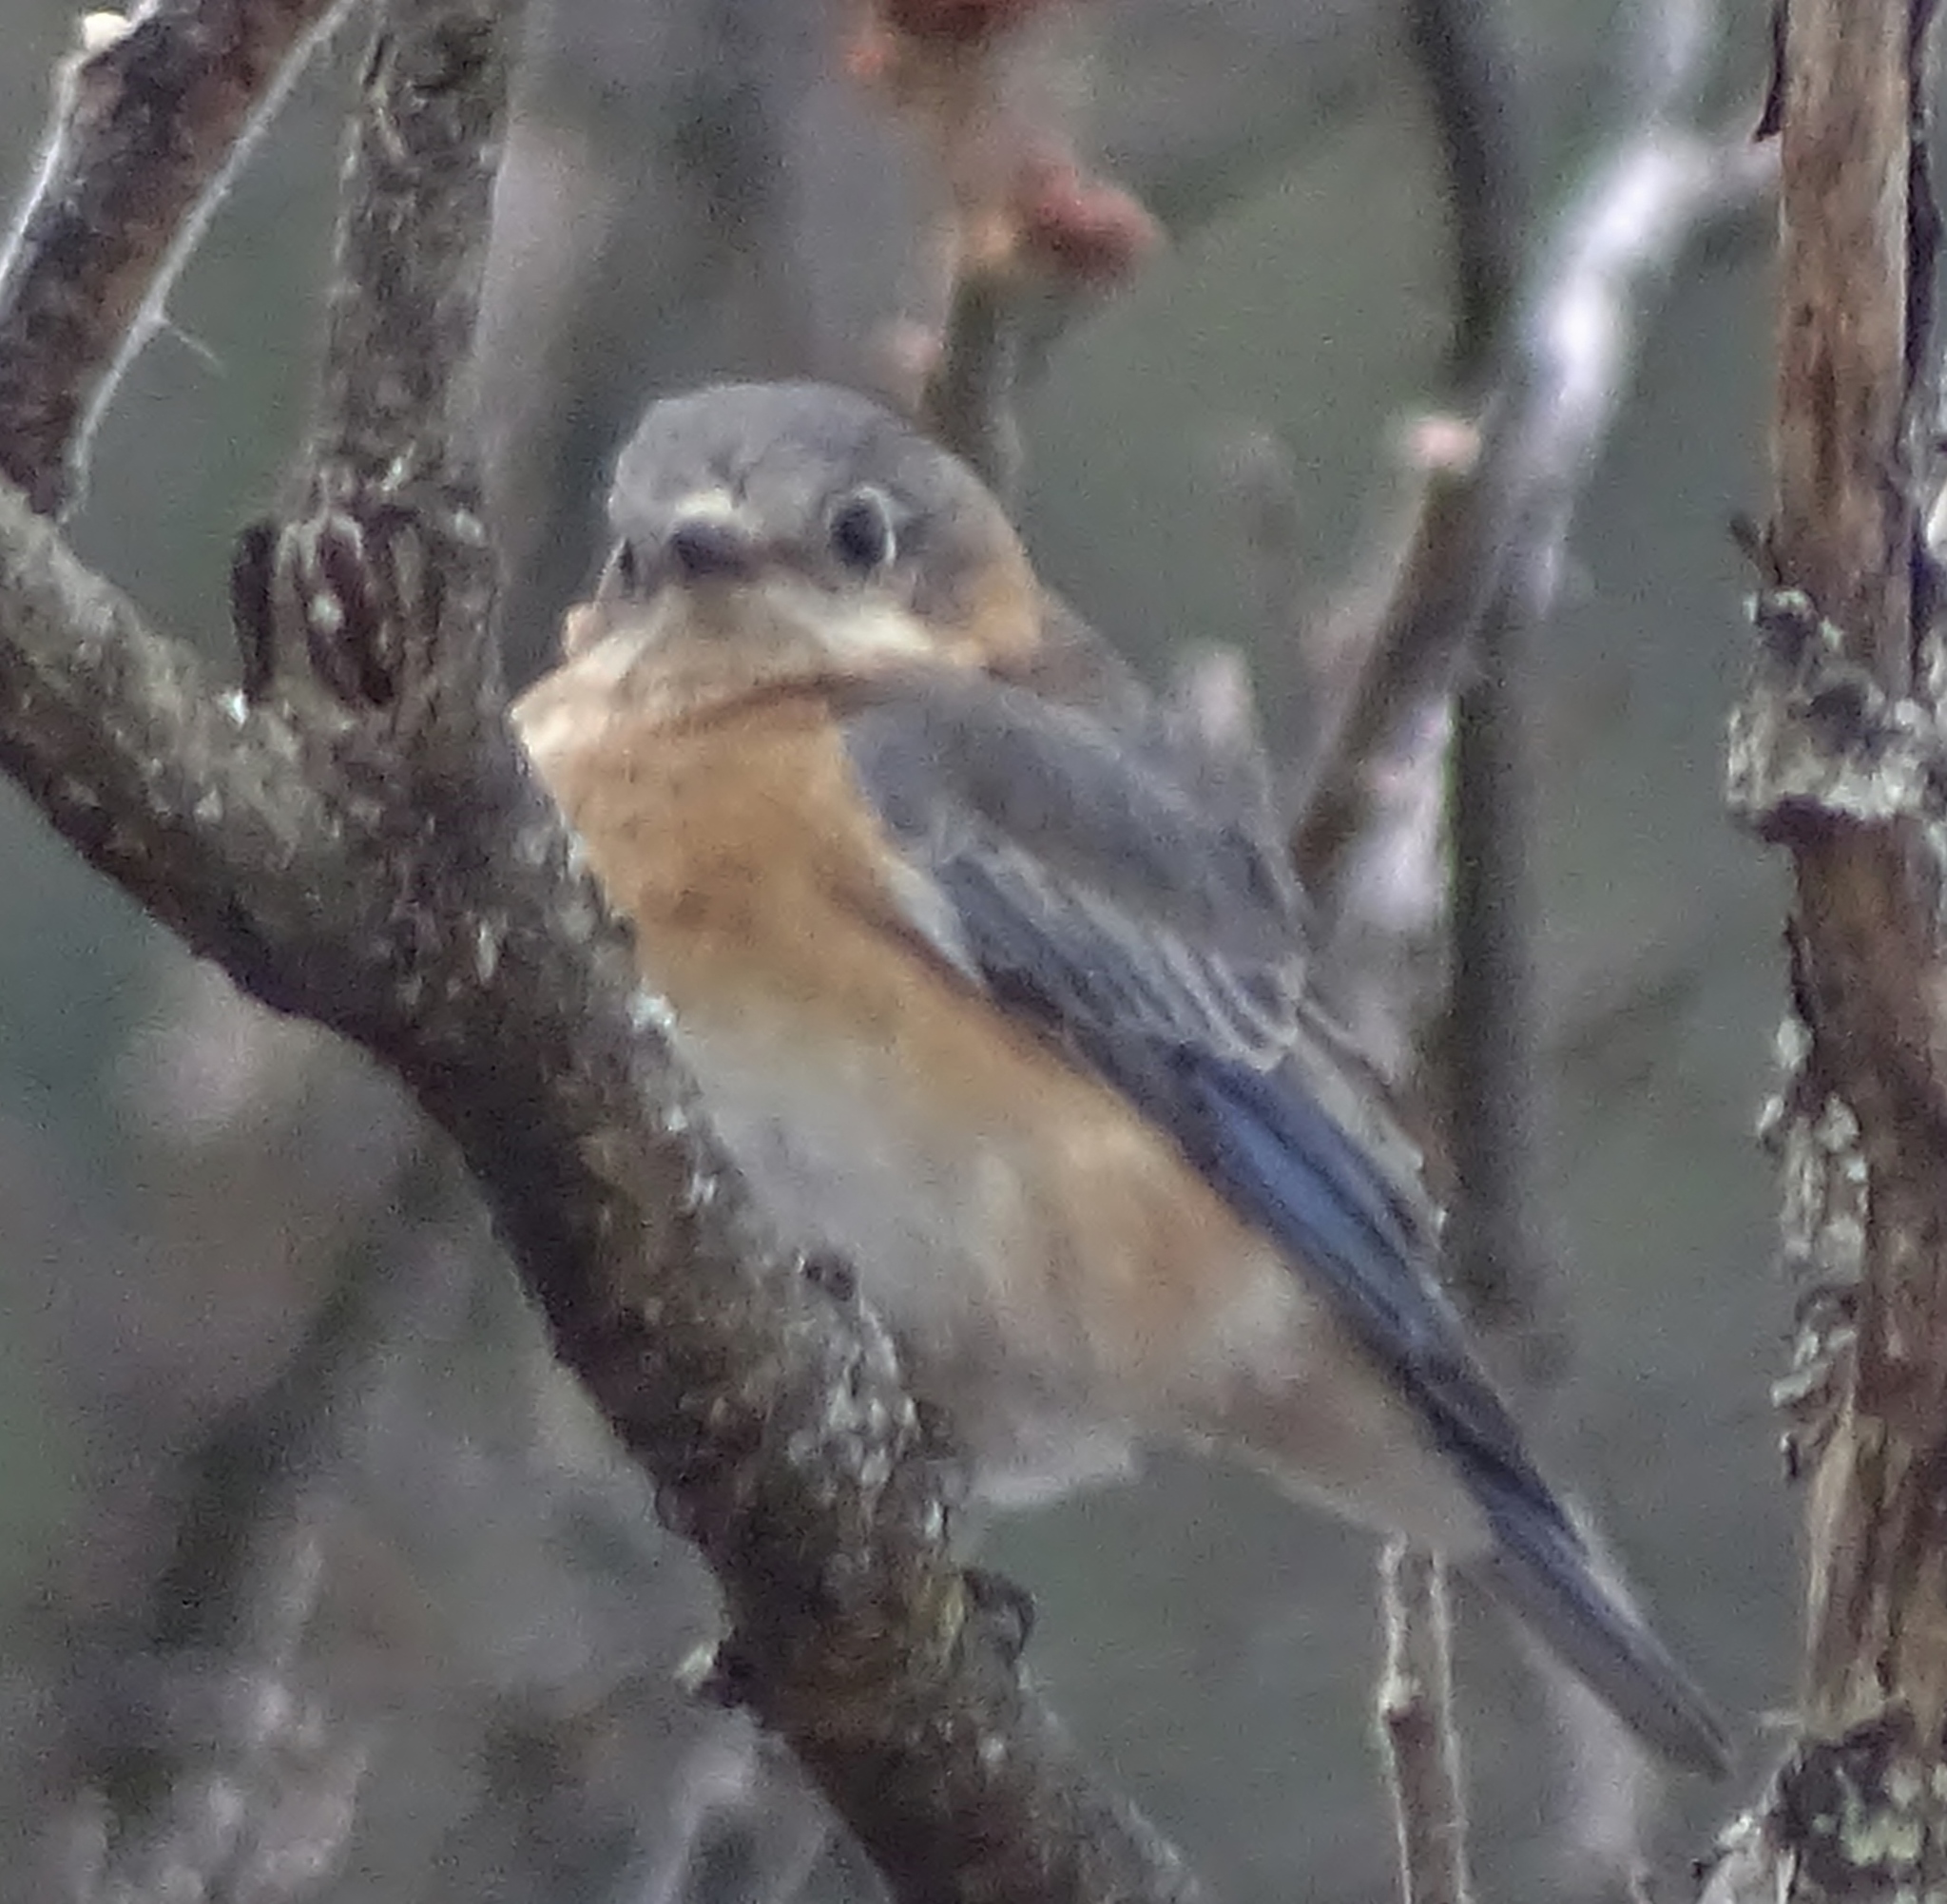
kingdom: Animalia
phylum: Chordata
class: Aves
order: Passeriformes
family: Turdidae
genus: Sialia
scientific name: Sialia sialis
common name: Eastern bluebird
